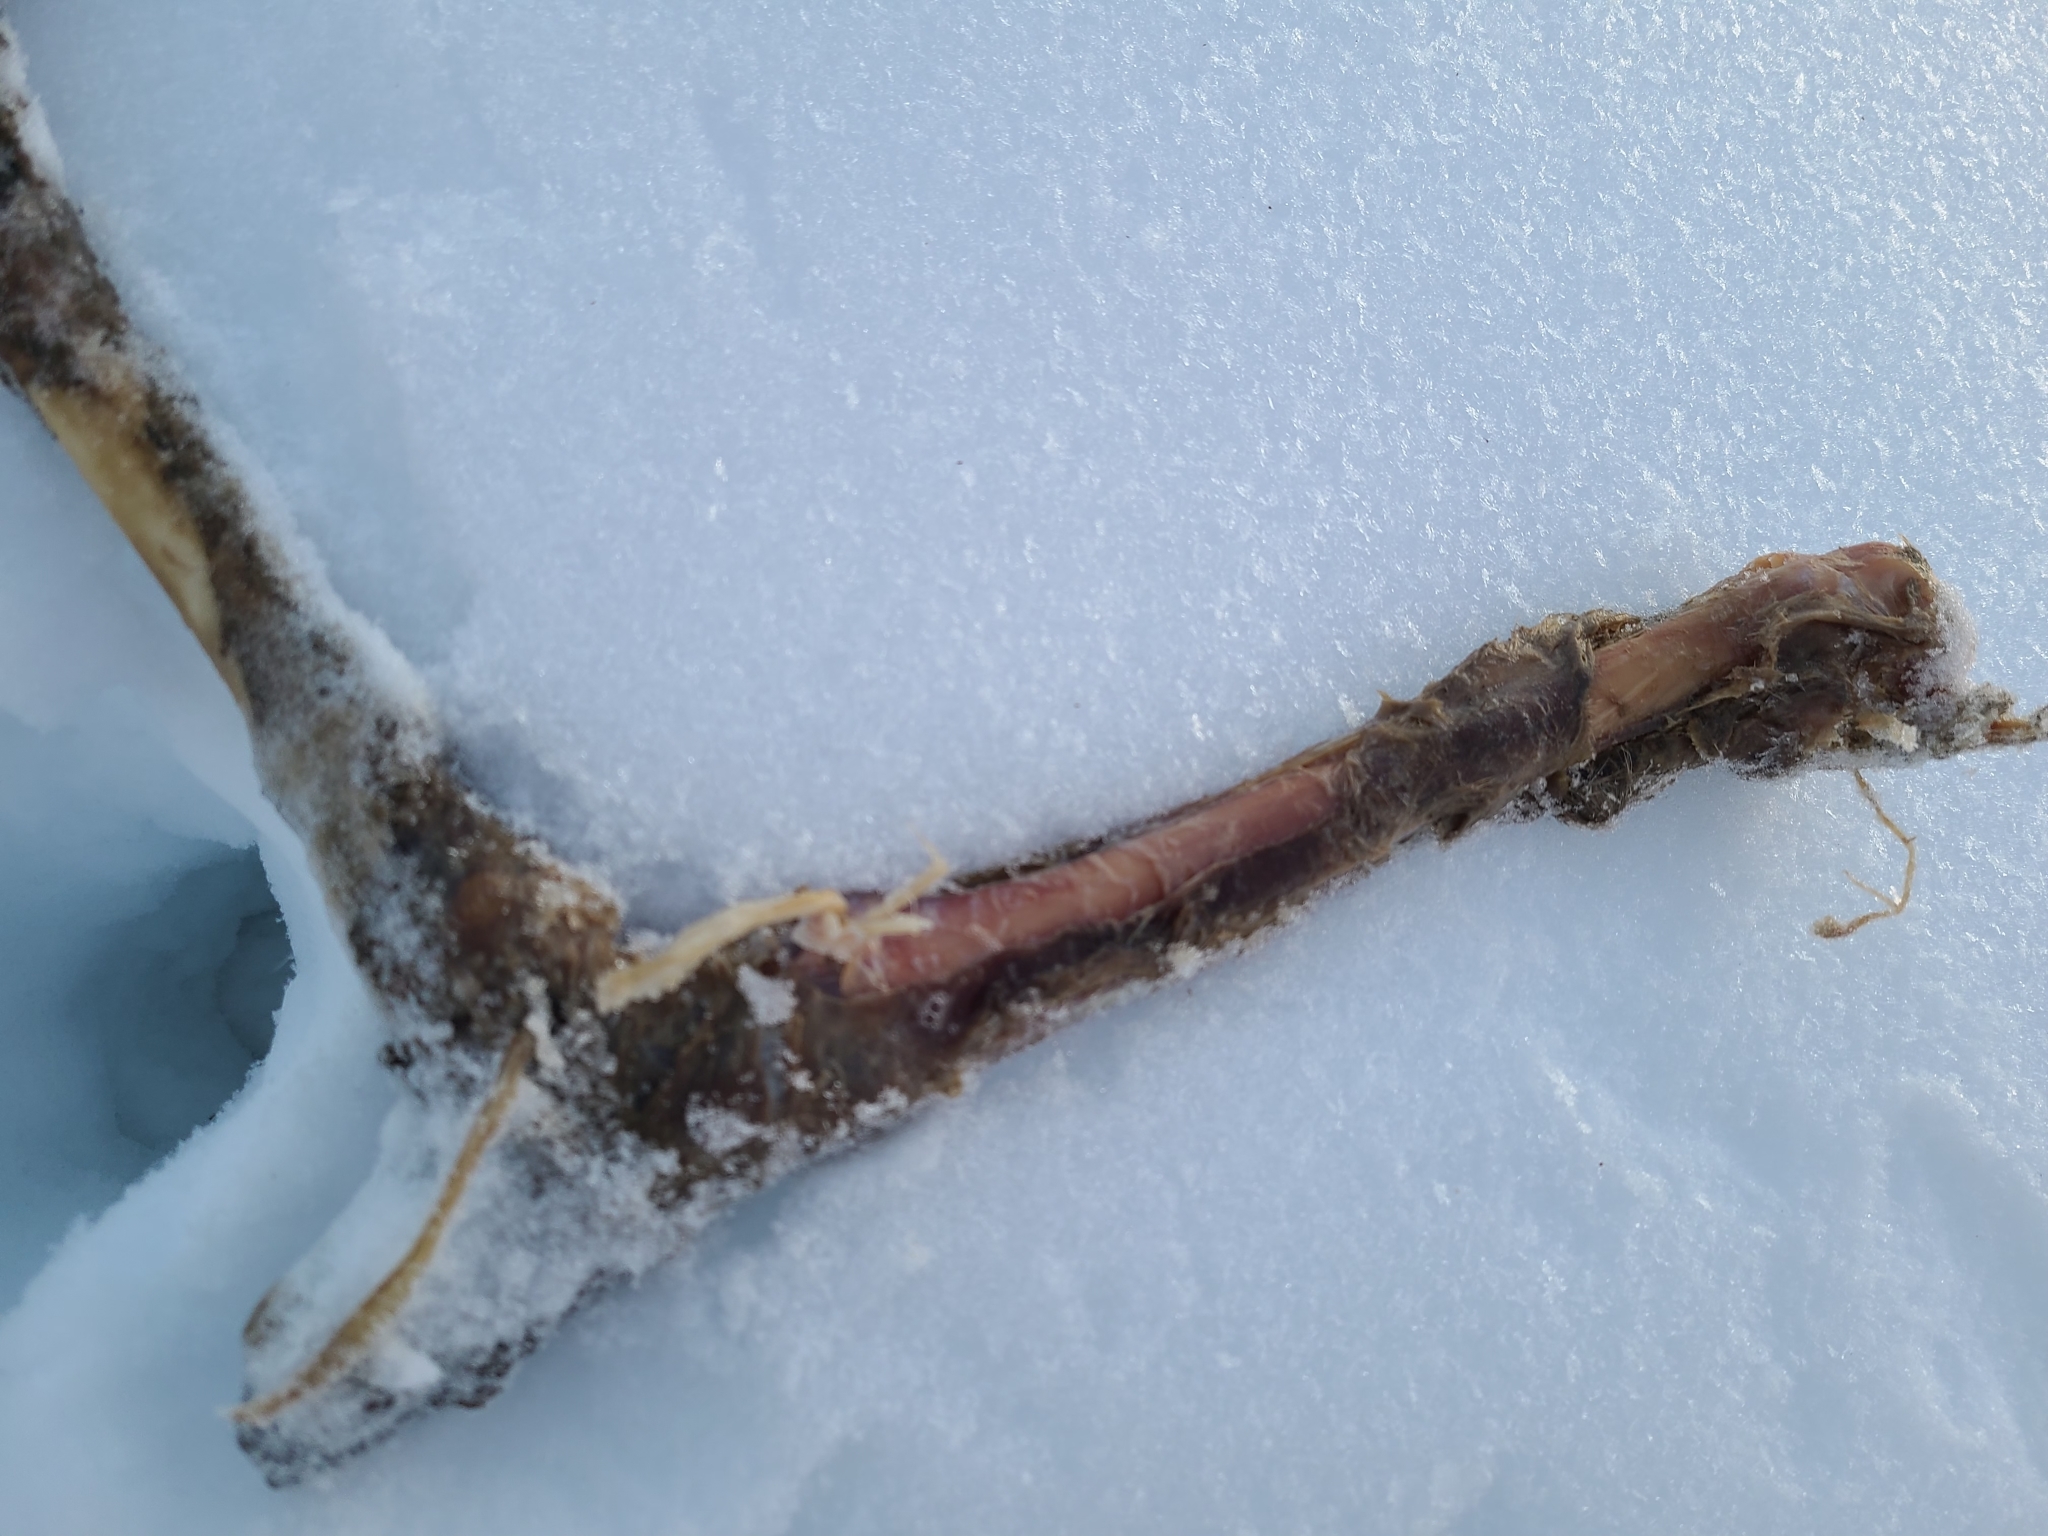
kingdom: Animalia
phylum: Chordata
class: Mammalia
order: Artiodactyla
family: Cervidae
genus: Odocoileus
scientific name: Odocoileus virginianus
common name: White-tailed deer
